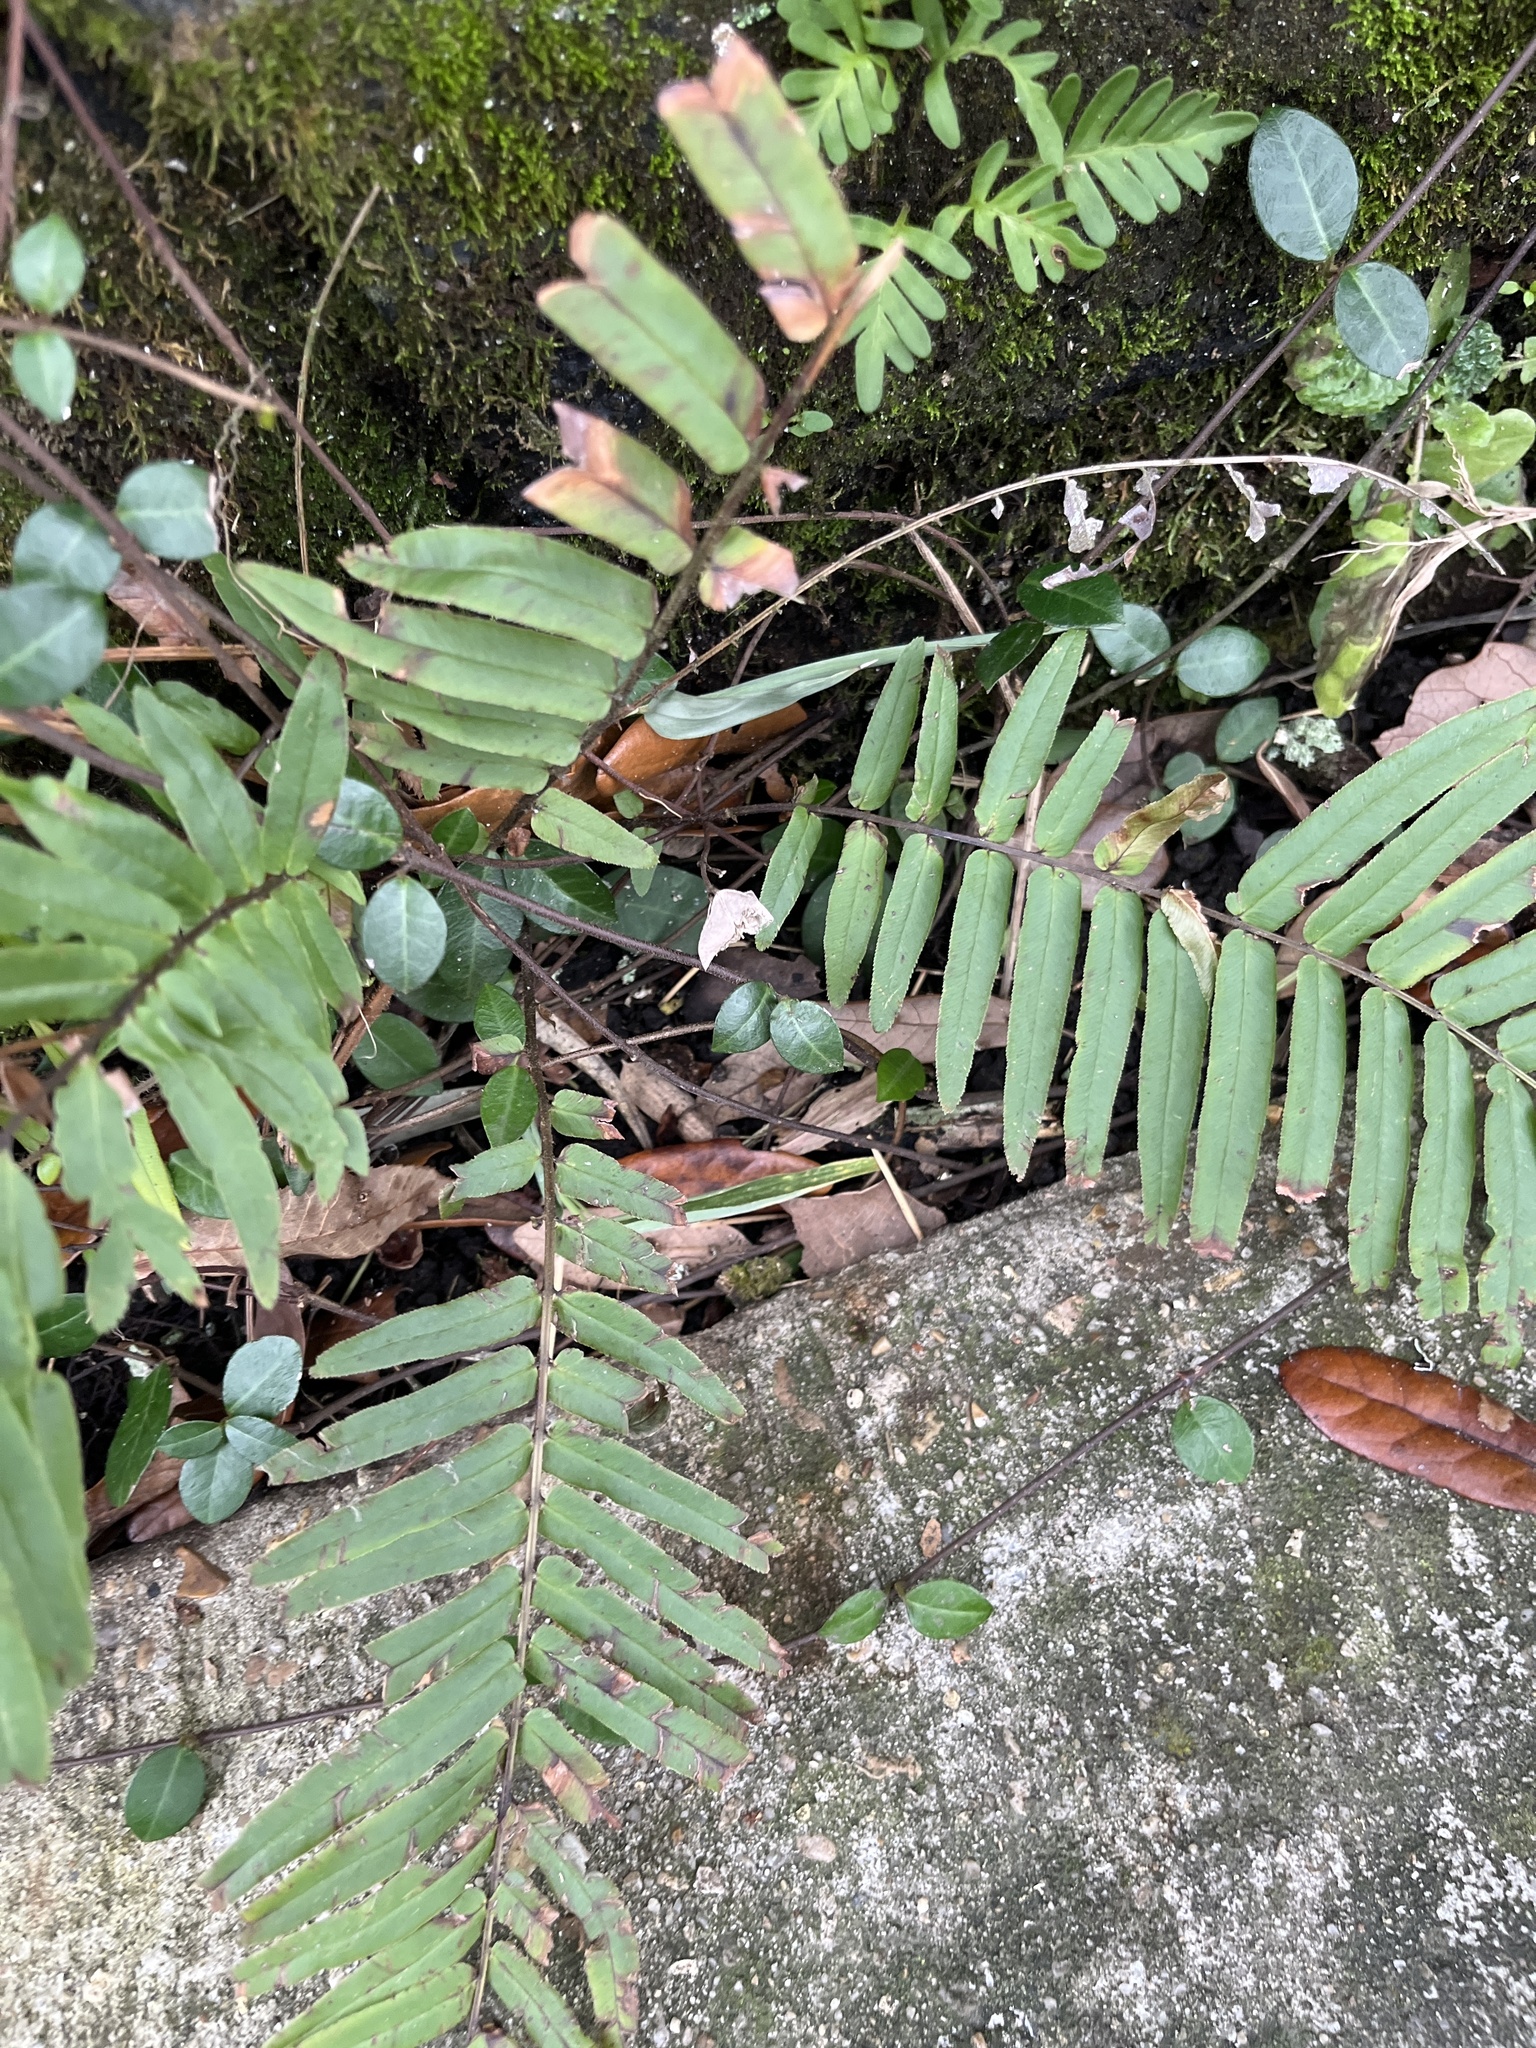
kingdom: Plantae
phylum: Tracheophyta
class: Polypodiopsida
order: Polypodiales
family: Pteridaceae
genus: Pteris
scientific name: Pteris vittata
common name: Ladder brake
